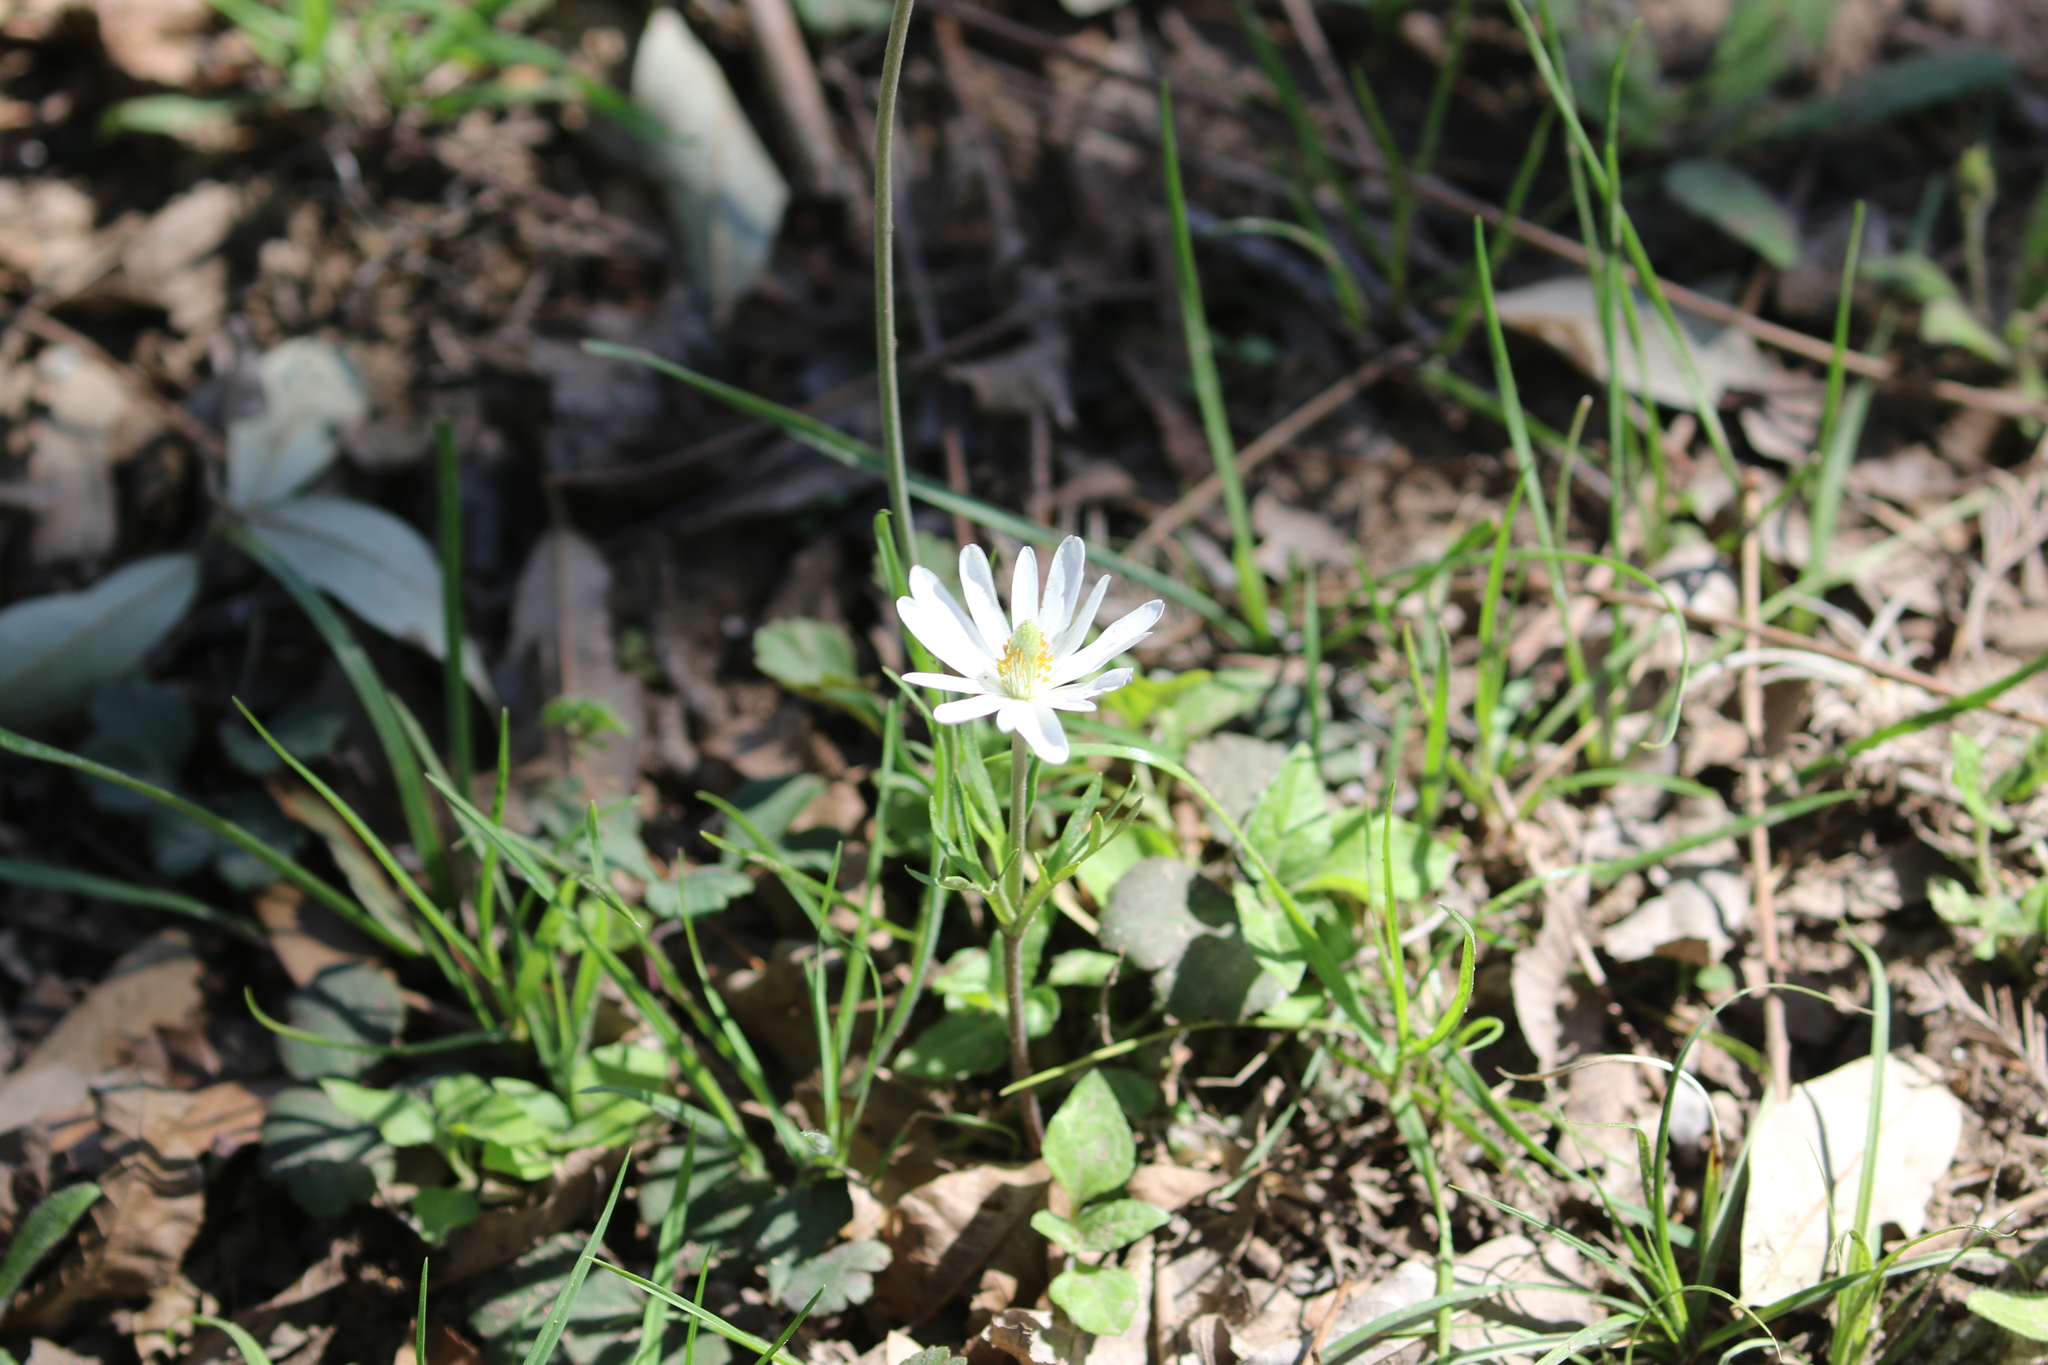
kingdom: Plantae
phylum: Tracheophyta
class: Magnoliopsida
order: Ranunculales
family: Ranunculaceae
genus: Anemone
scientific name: Anemone berlandieri
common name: Ten-petal anemone
